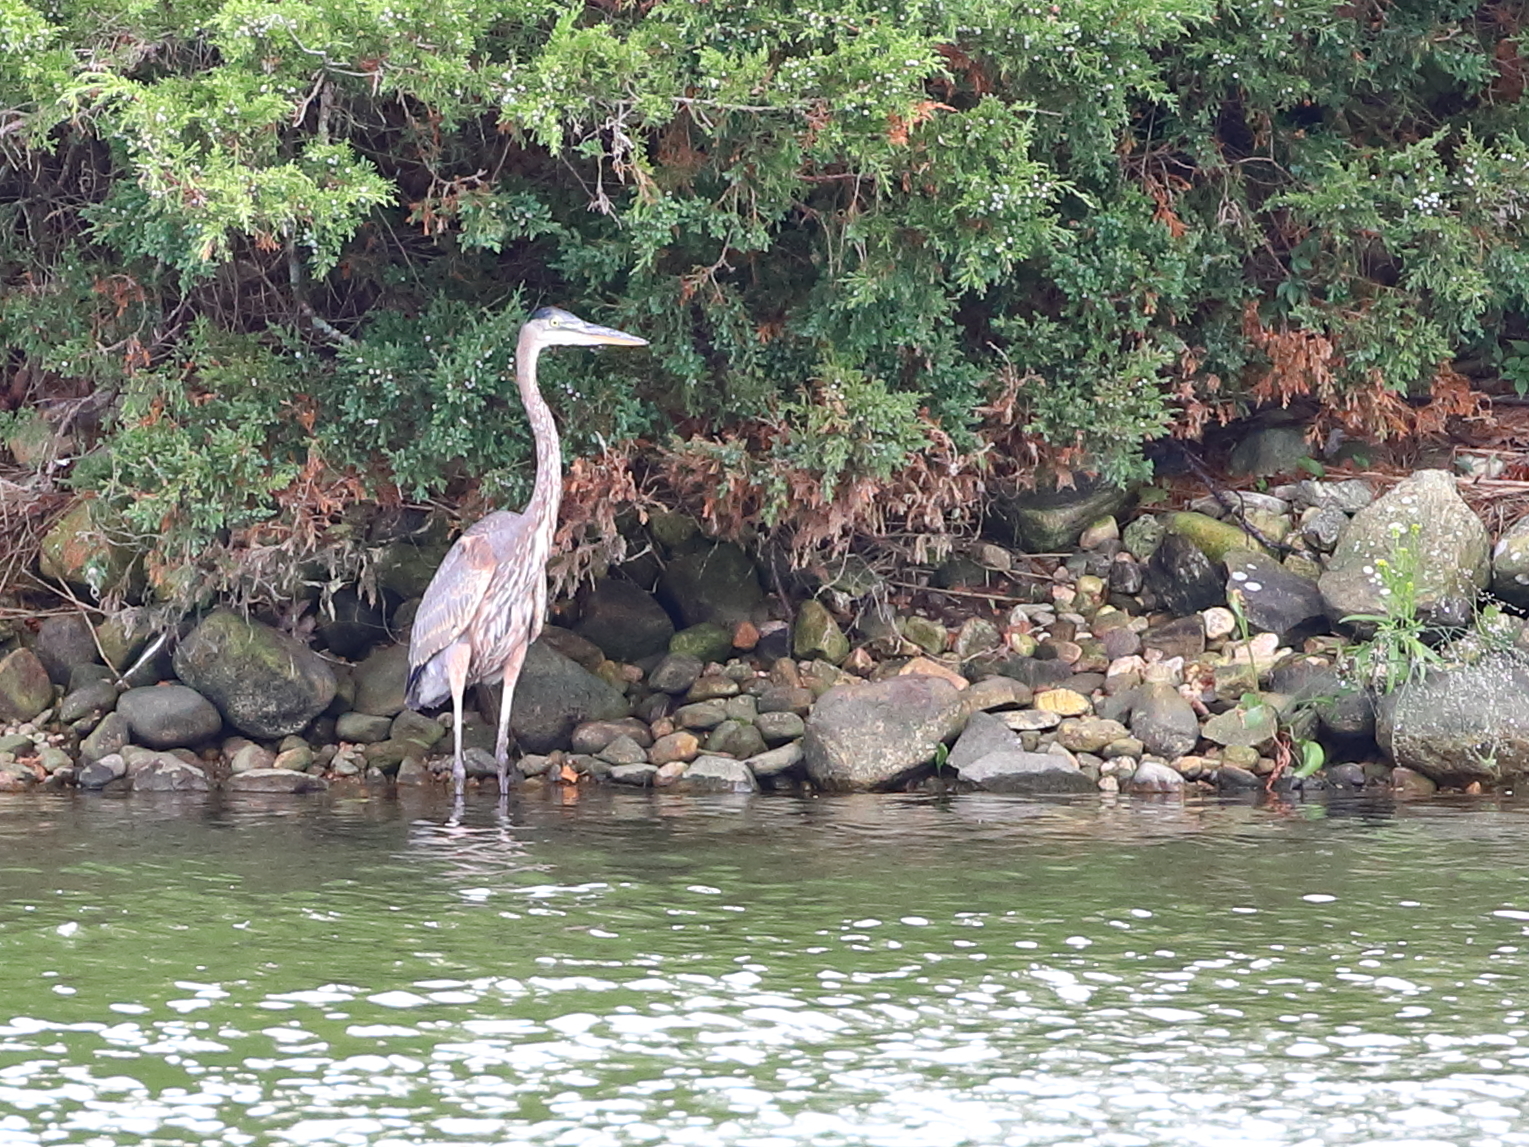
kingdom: Animalia
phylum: Chordata
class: Aves
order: Pelecaniformes
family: Ardeidae
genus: Ardea
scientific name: Ardea herodias
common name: Great blue heron
